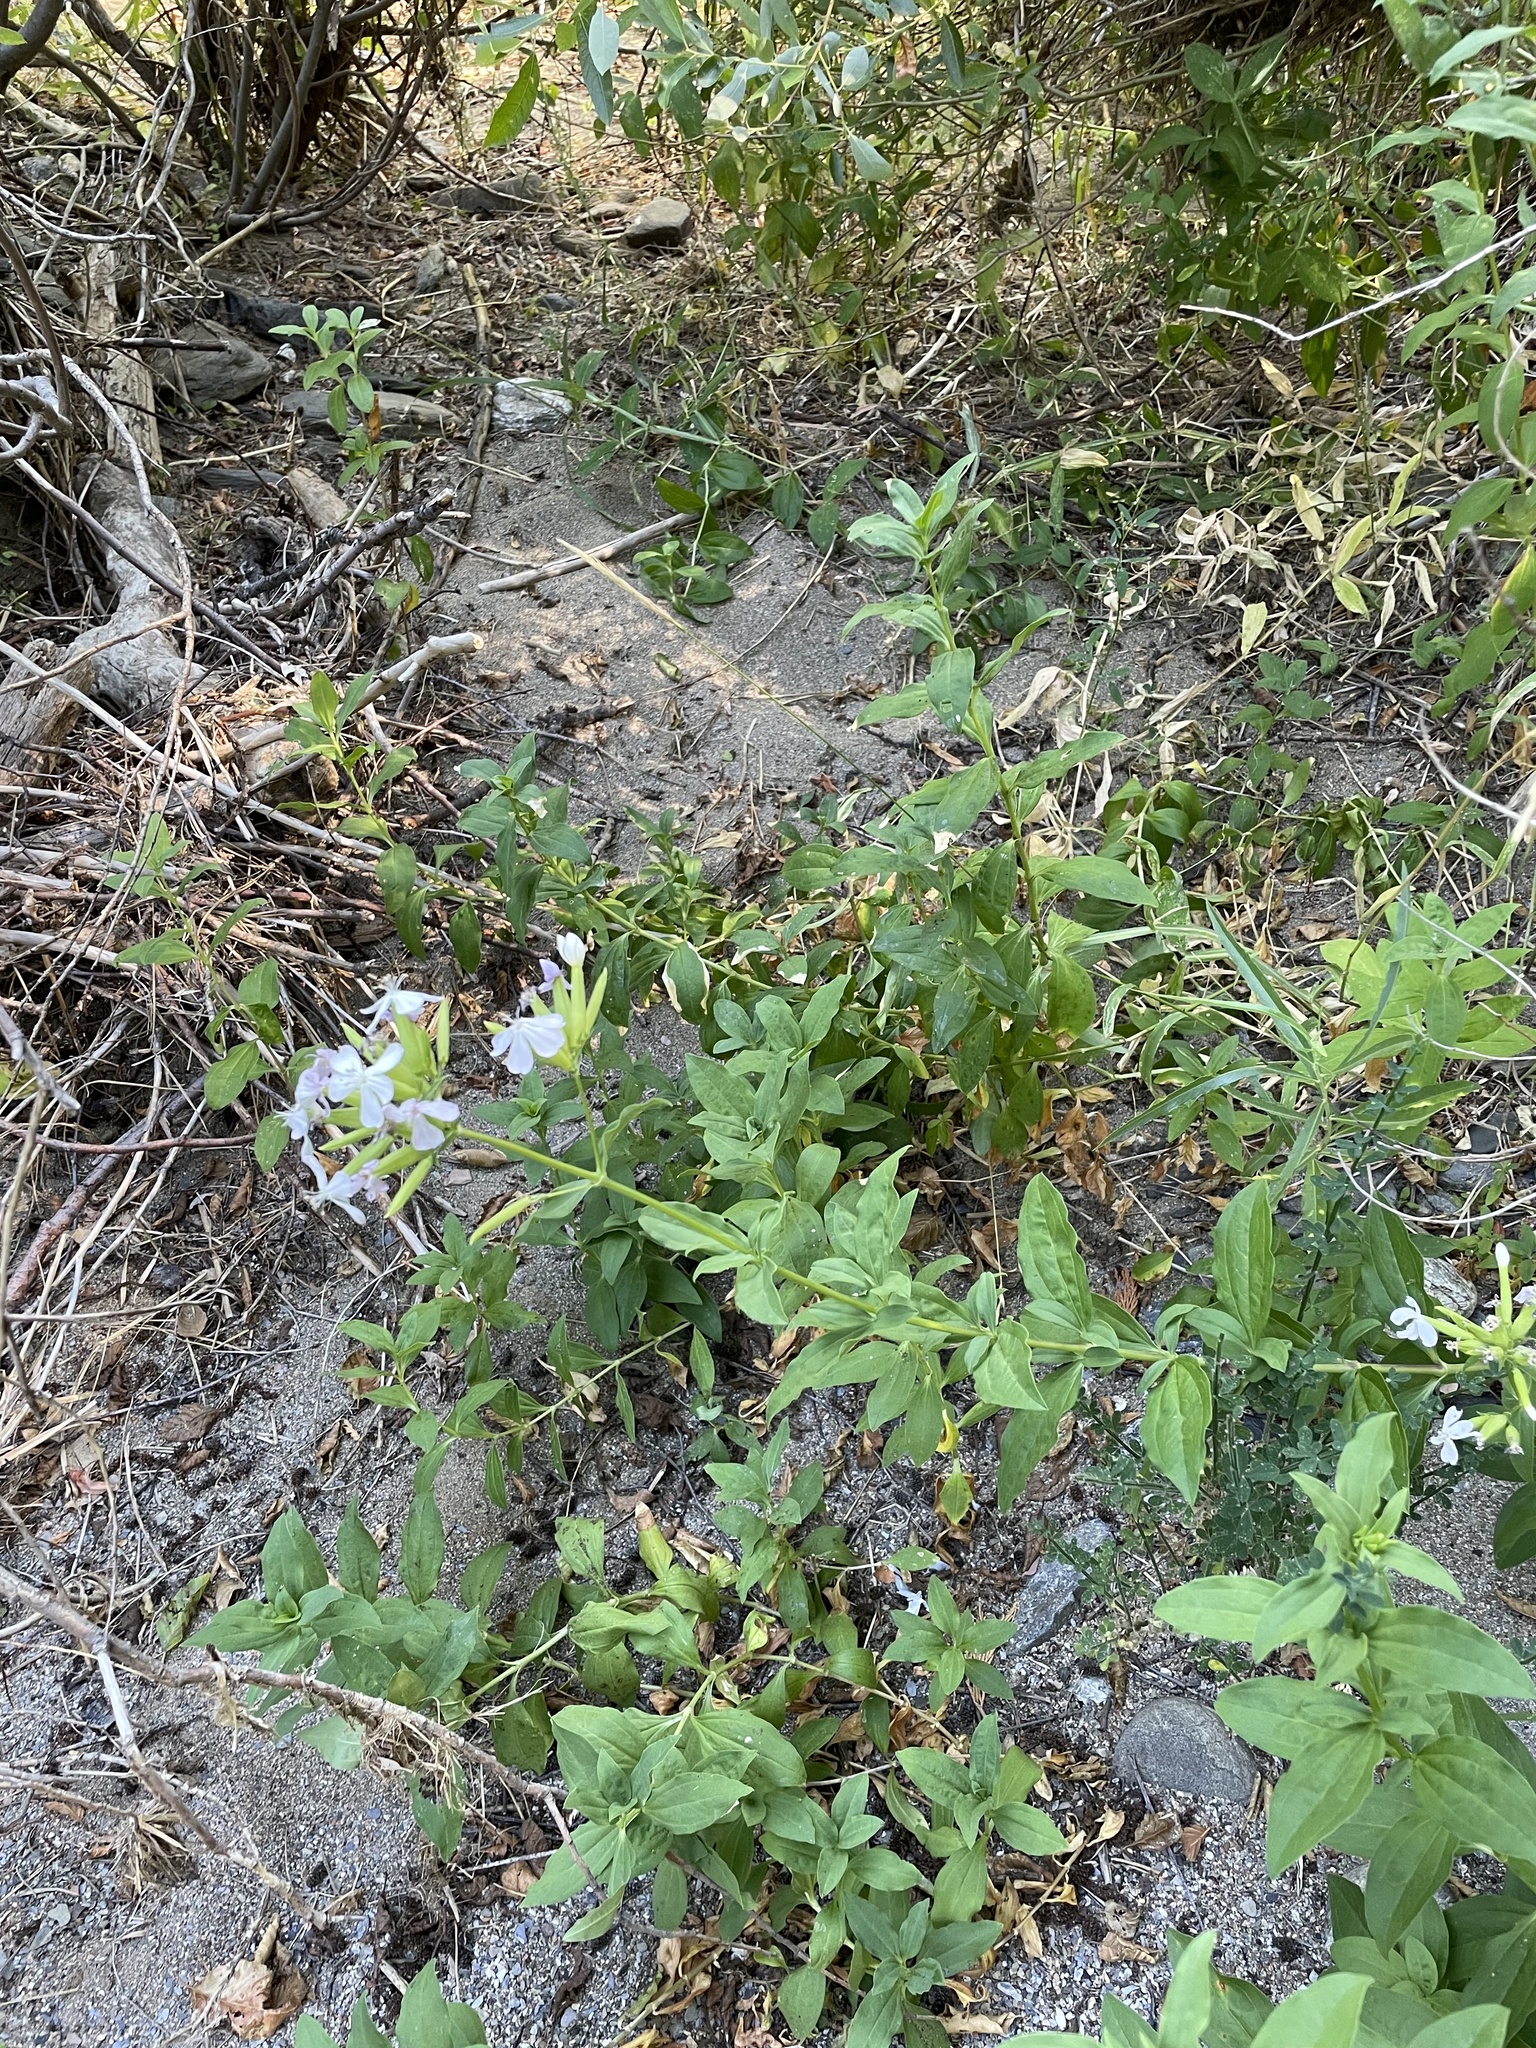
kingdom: Plantae
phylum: Tracheophyta
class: Magnoliopsida
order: Caryophyllales
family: Caryophyllaceae
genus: Saponaria
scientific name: Saponaria officinalis
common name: Soapwort
